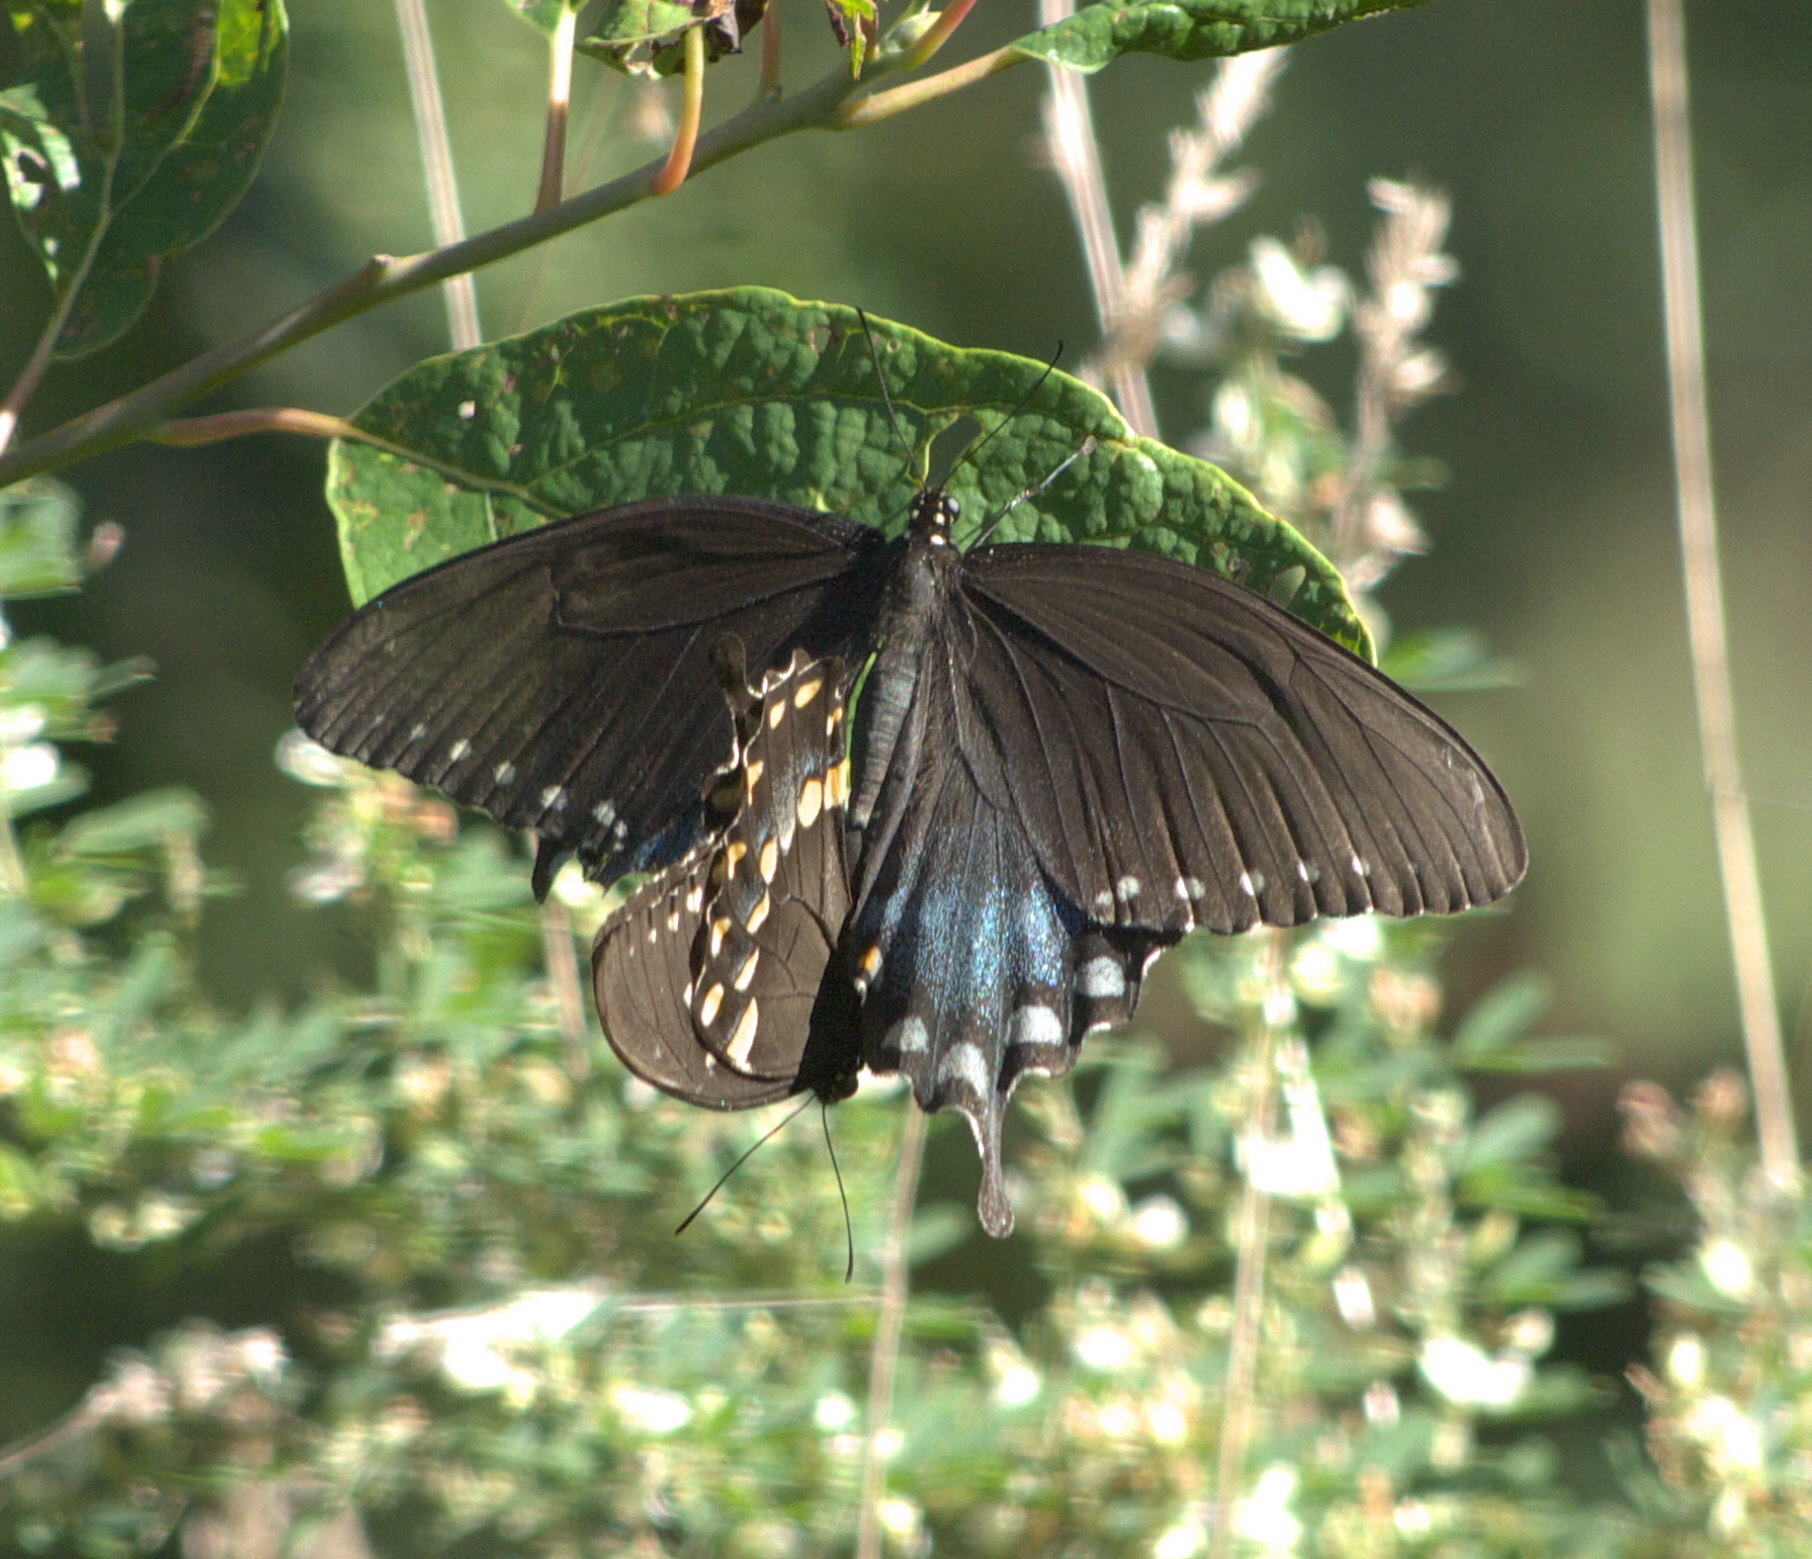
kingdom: Animalia
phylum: Arthropoda
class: Insecta
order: Lepidoptera
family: Papilionidae
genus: Papilio
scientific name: Papilio troilus
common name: Spicebush swallowtail
